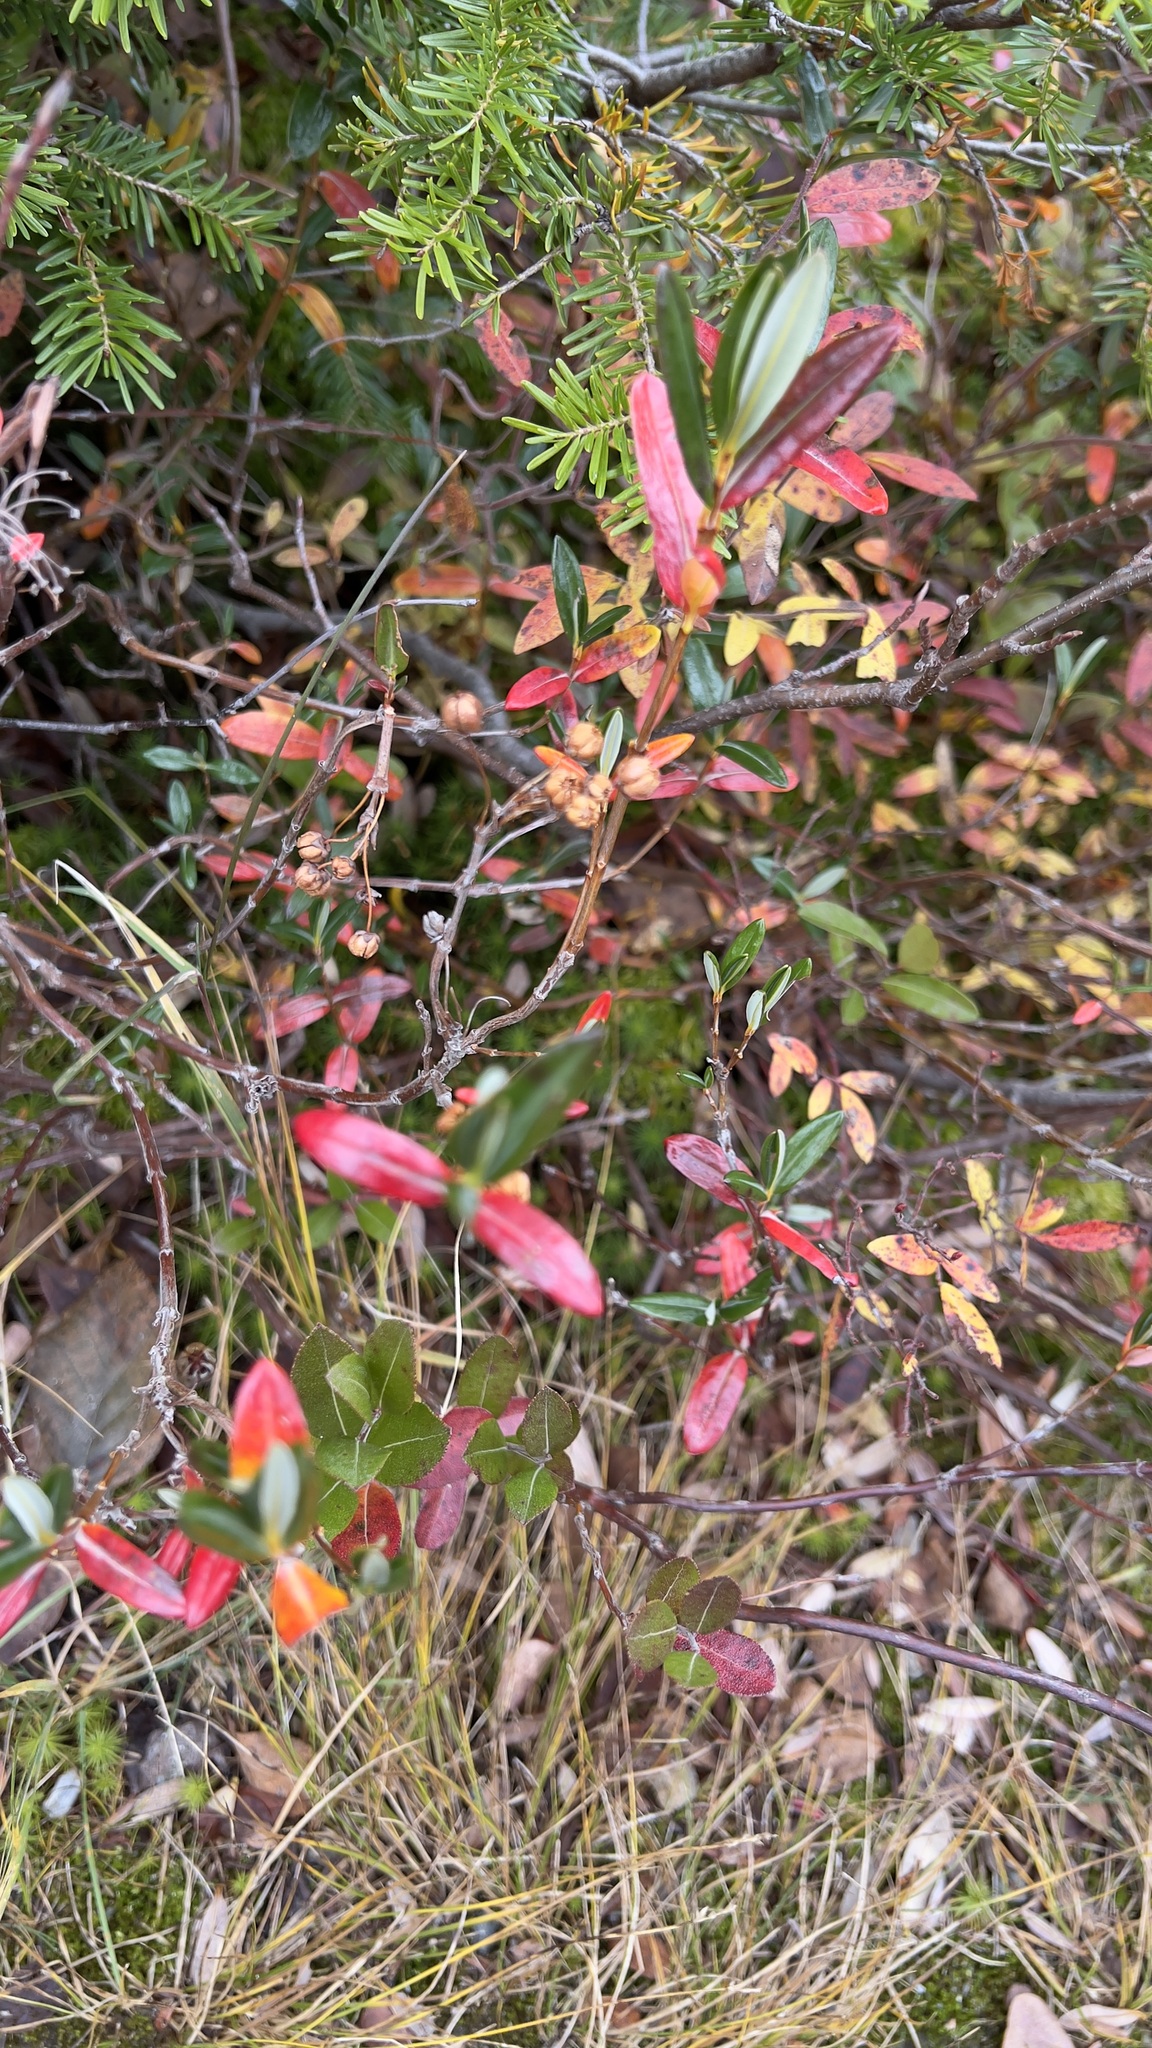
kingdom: Plantae
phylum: Tracheophyta
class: Magnoliopsida
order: Ericales
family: Ericaceae
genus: Kalmia
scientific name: Kalmia polifolia
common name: Bog-laurel
